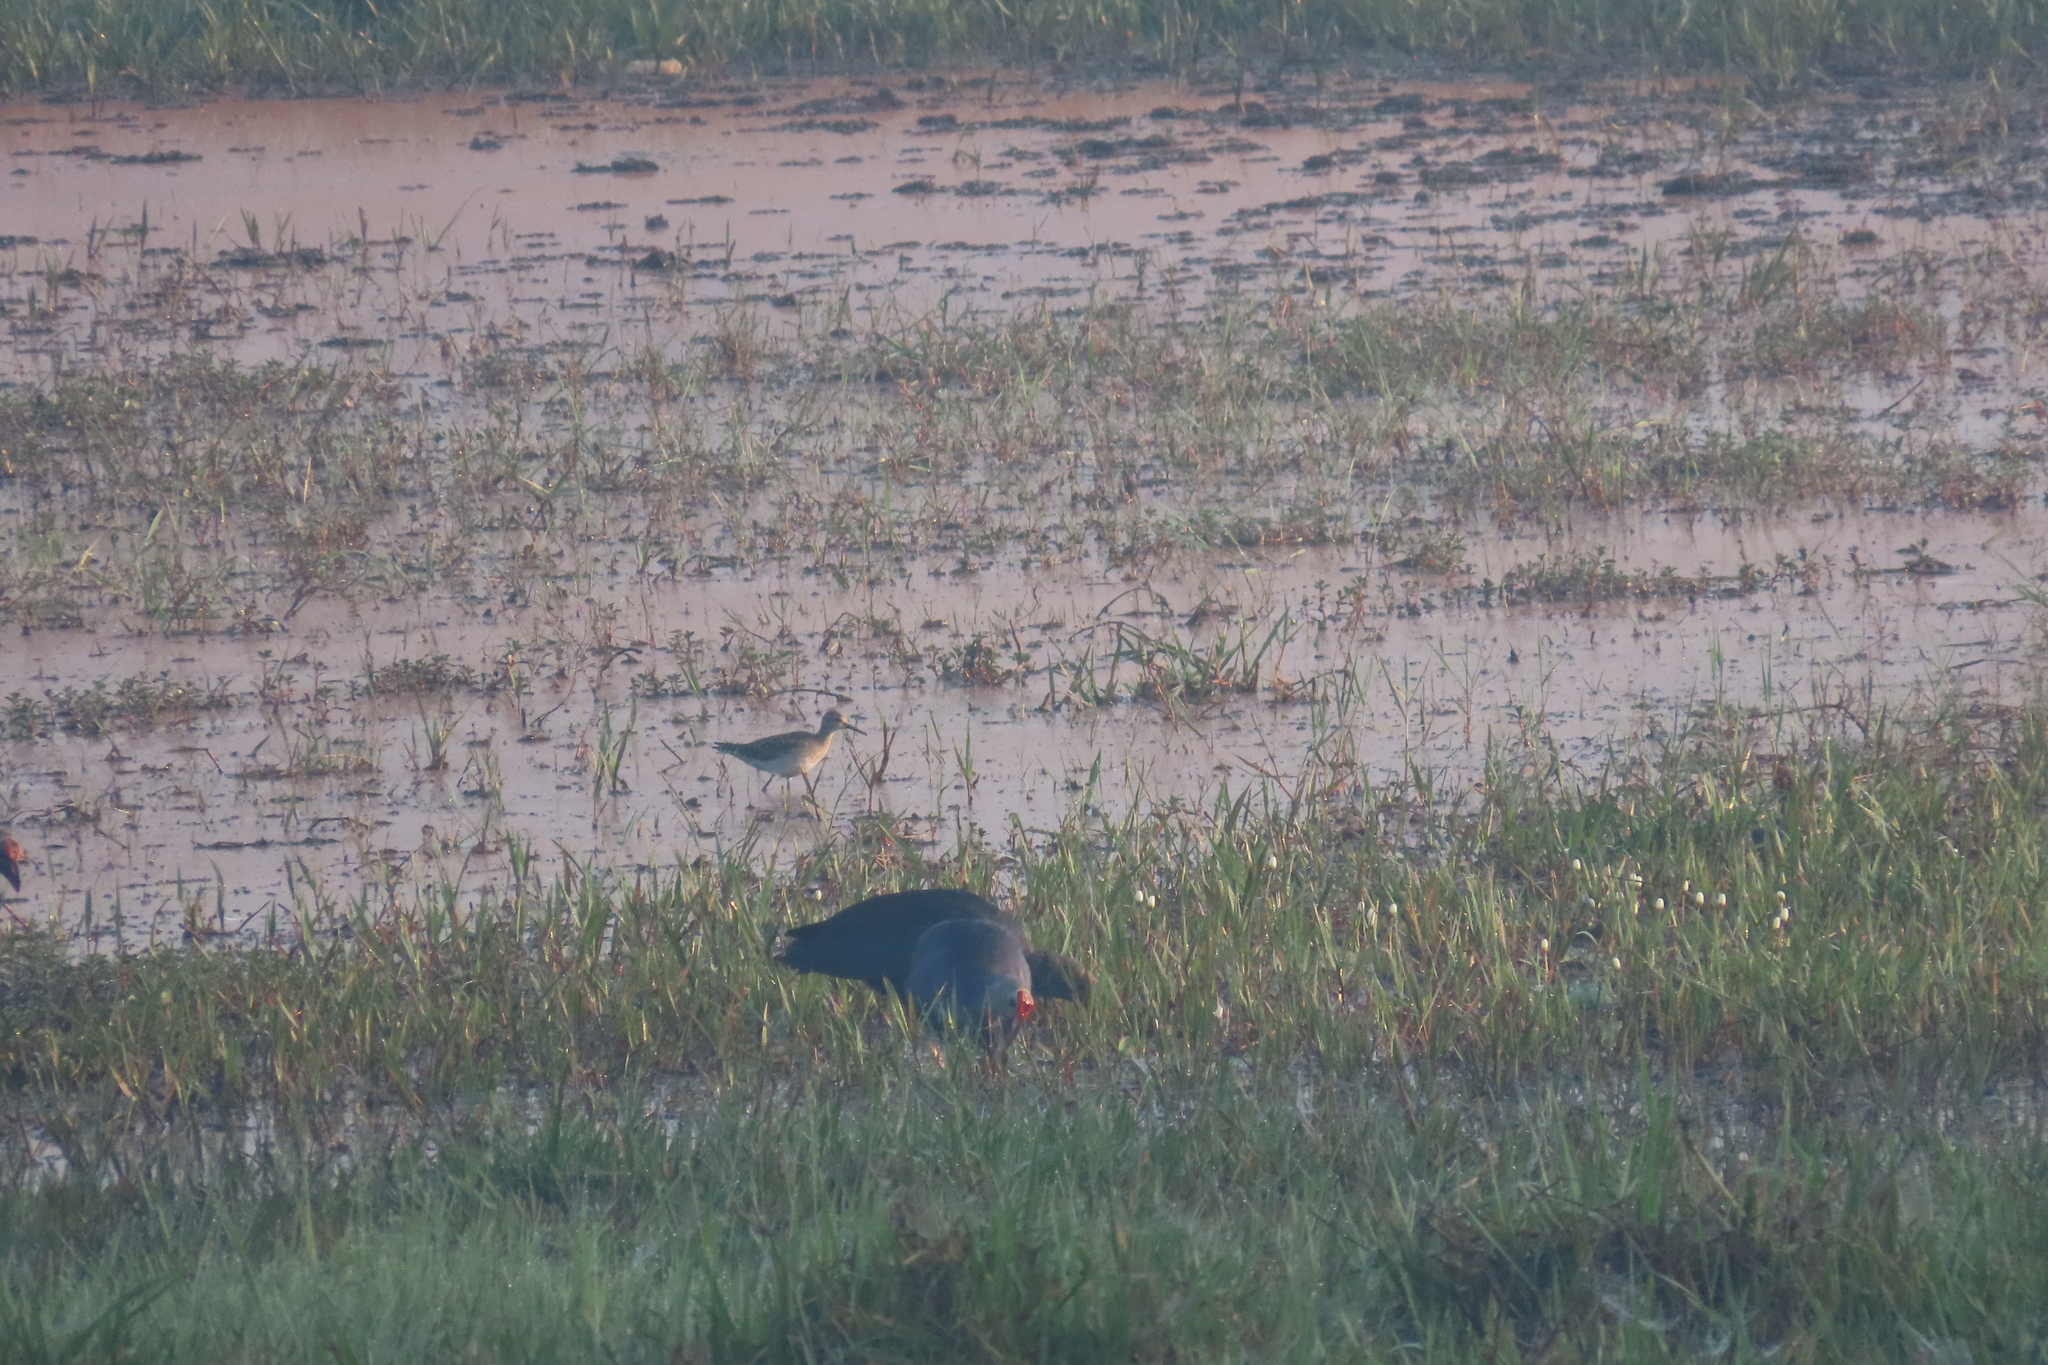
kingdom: Animalia
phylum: Chordata
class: Aves
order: Charadriiformes
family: Scolopacidae
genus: Tringa
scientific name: Tringa glareola
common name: Wood sandpiper
